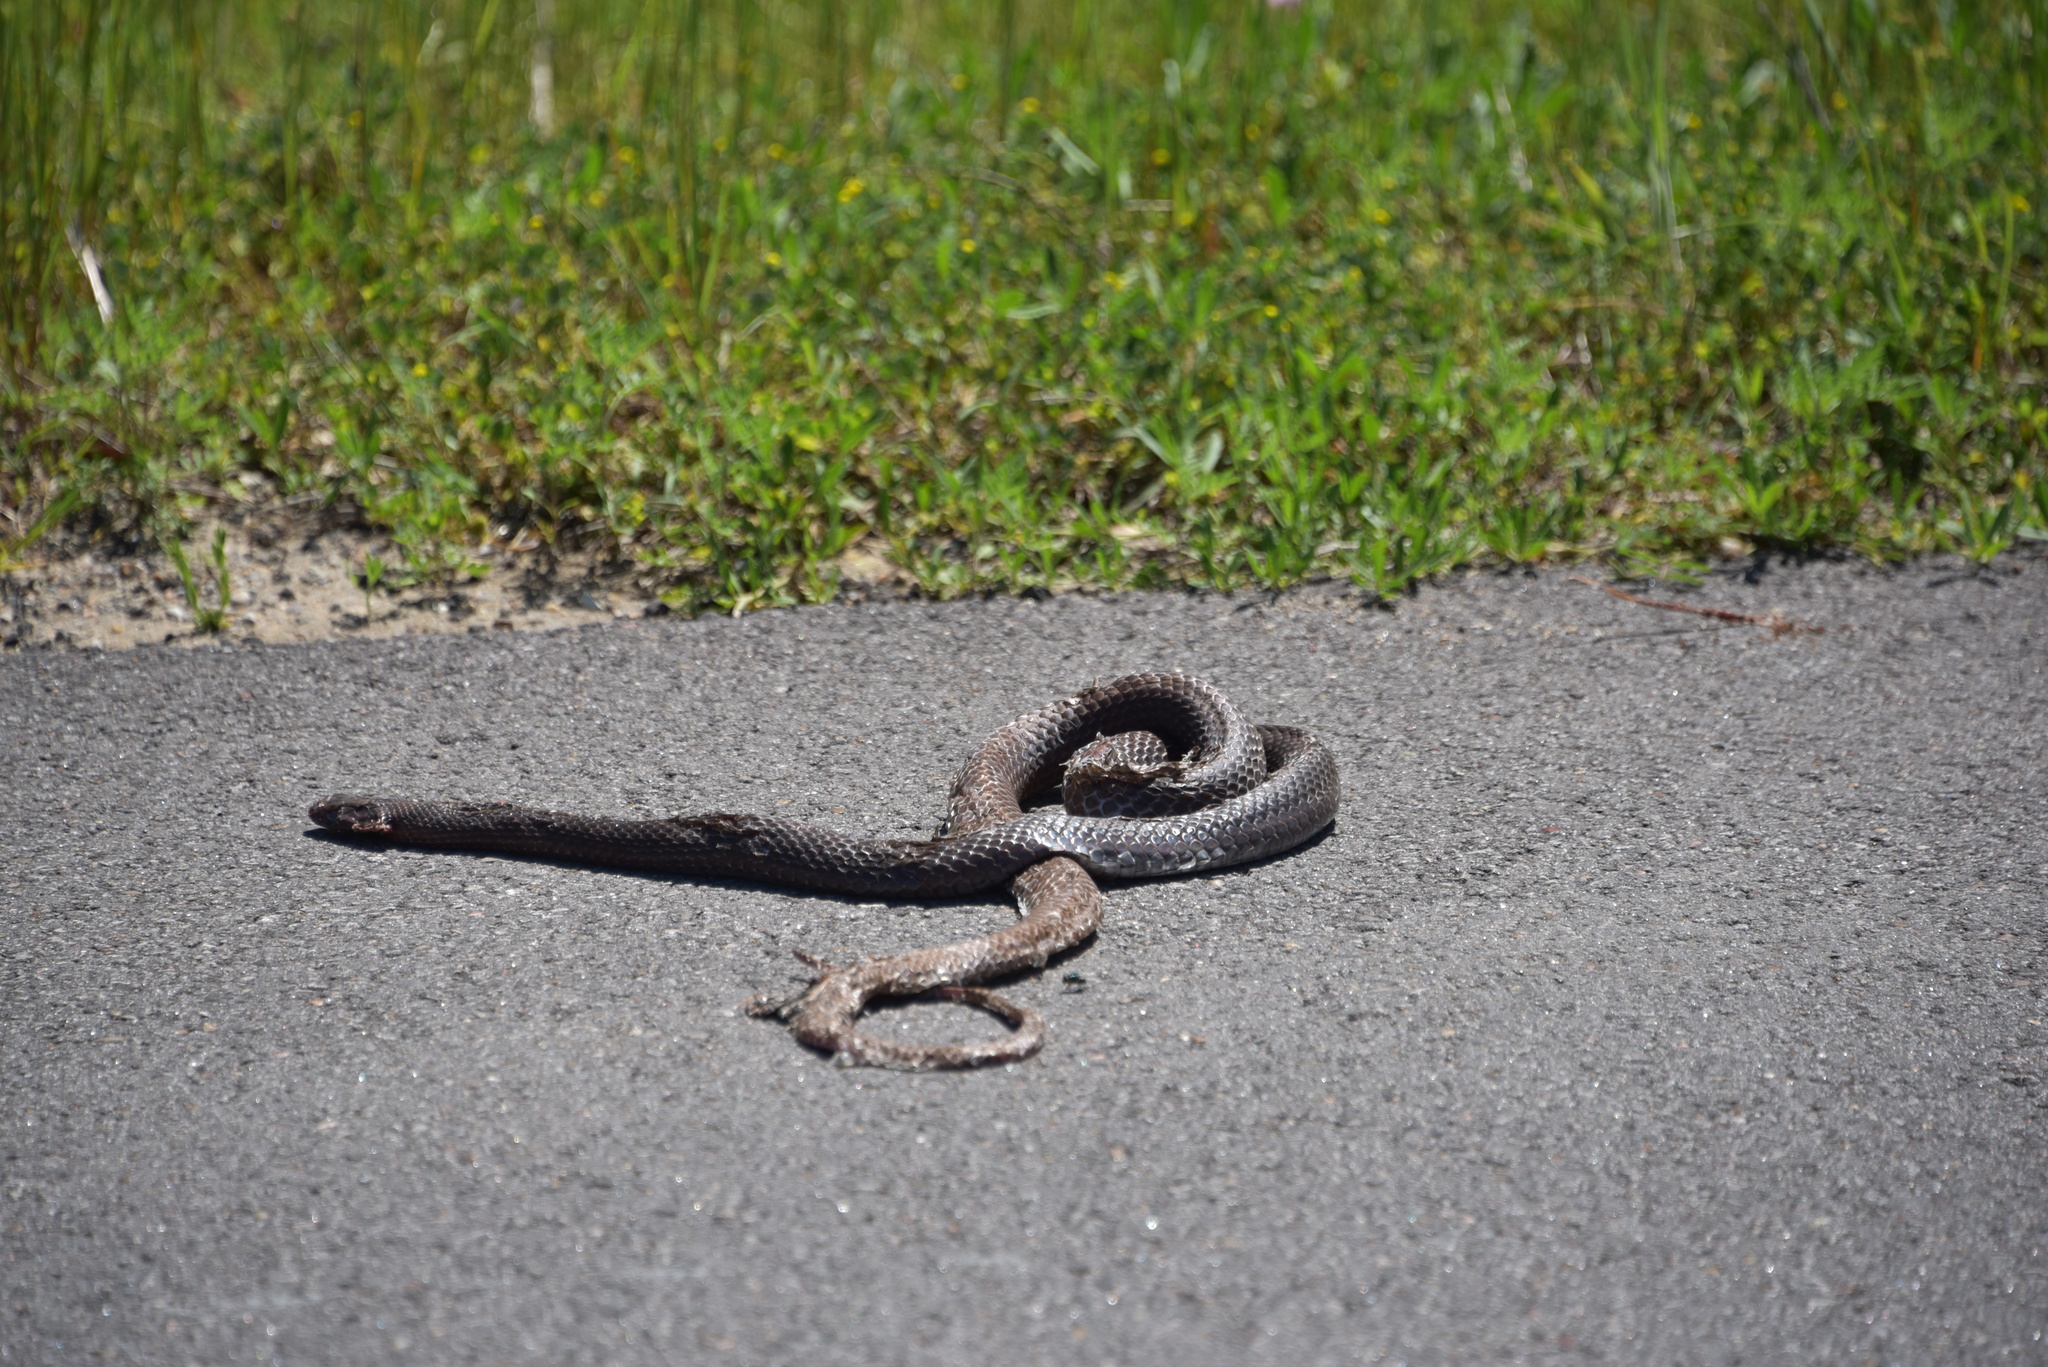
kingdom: Animalia
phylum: Chordata
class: Squamata
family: Colubridae
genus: Masticophis
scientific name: Masticophis flagellum
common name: Coachwhip
